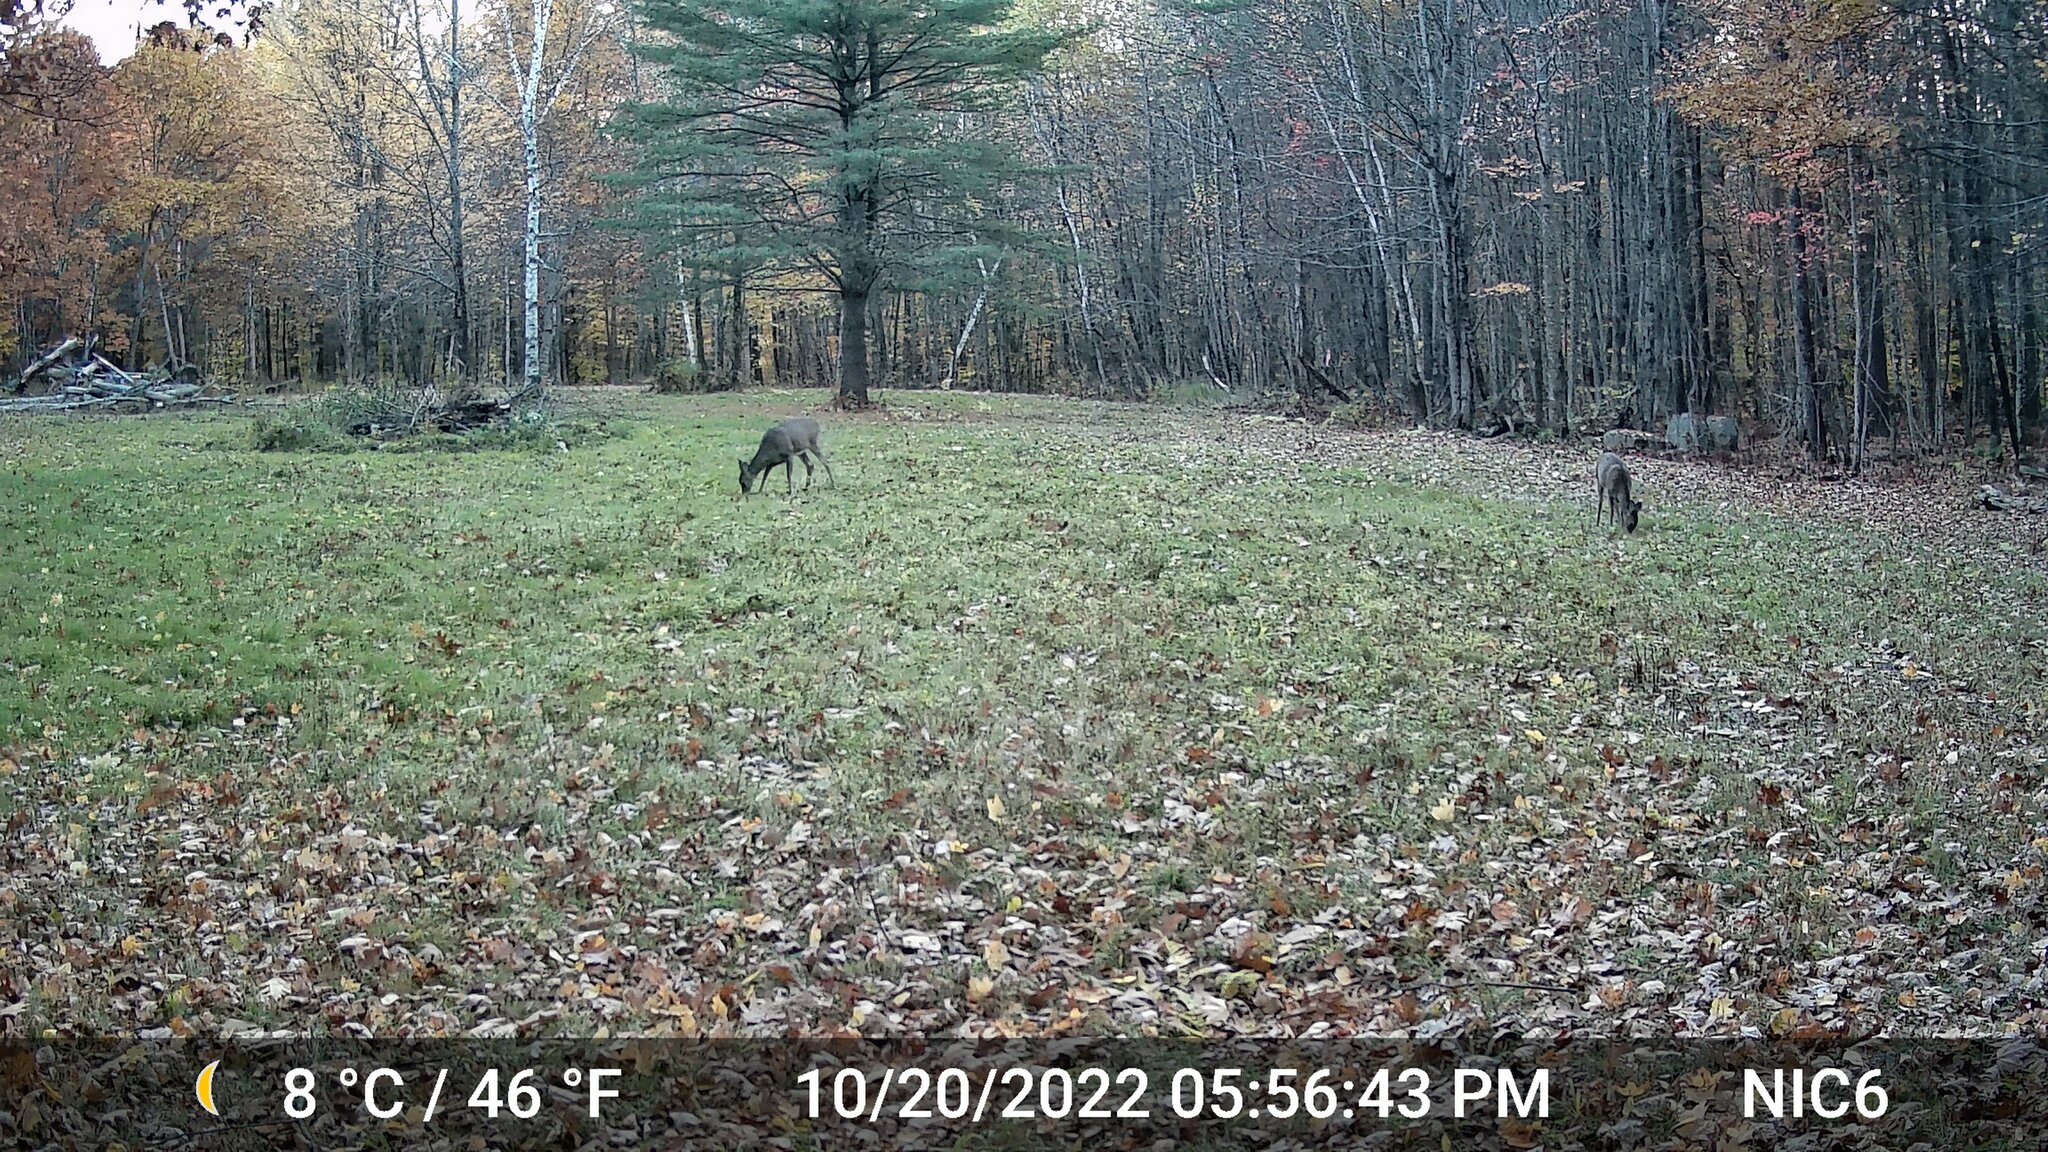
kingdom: Animalia
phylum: Chordata
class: Mammalia
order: Artiodactyla
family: Cervidae
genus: Odocoileus
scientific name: Odocoileus virginianus
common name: White-tailed deer
